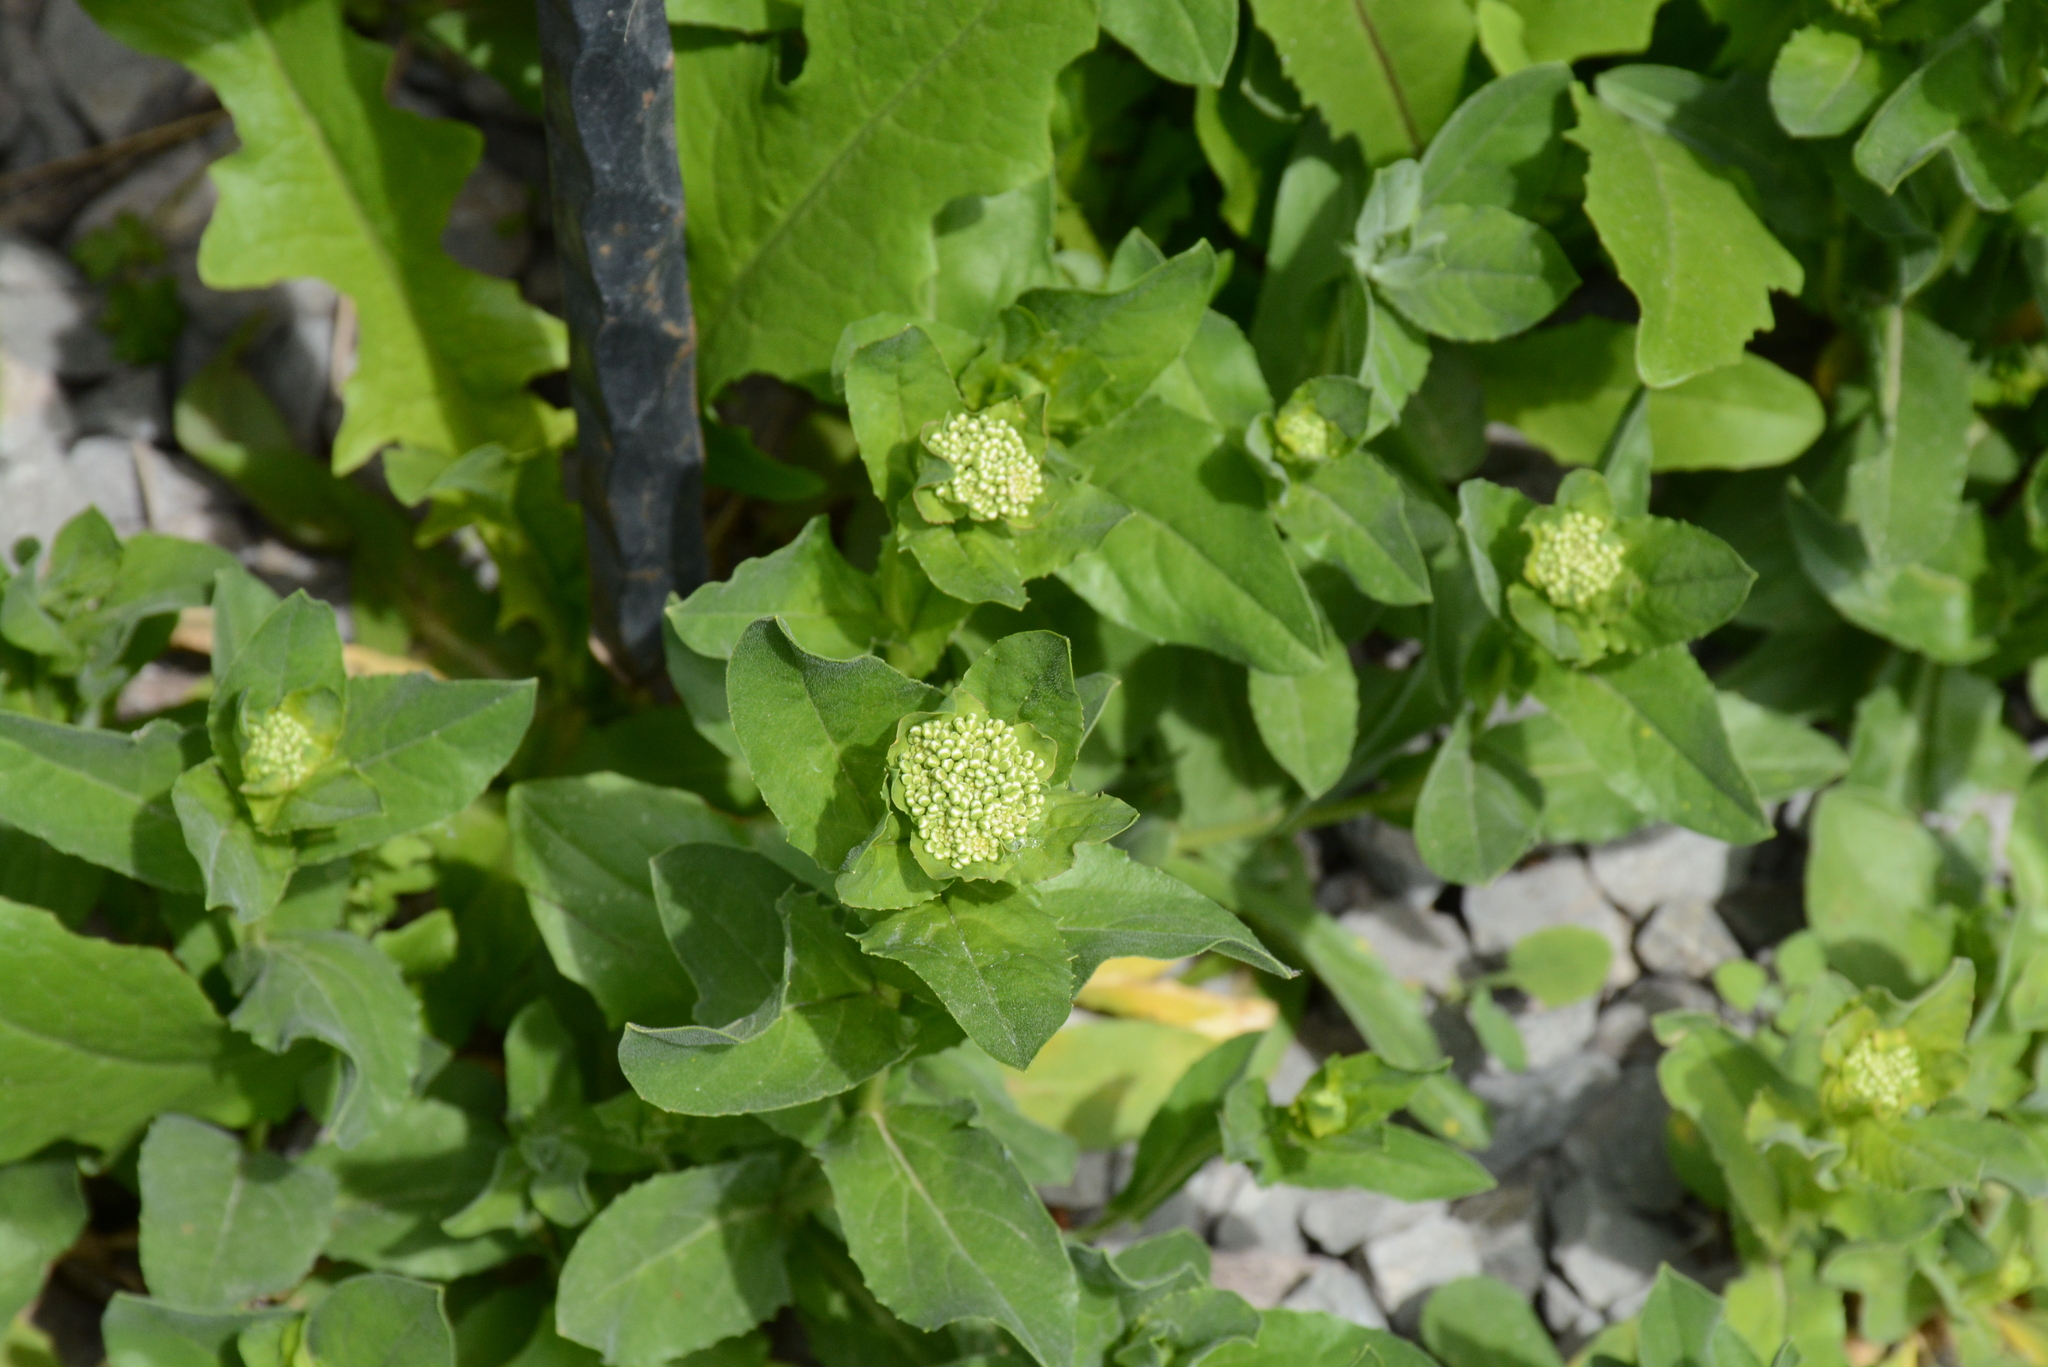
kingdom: Plantae
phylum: Tracheophyta
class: Magnoliopsida
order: Brassicales
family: Brassicaceae
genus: Lepidium
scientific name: Lepidium draba
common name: Hoary cress
